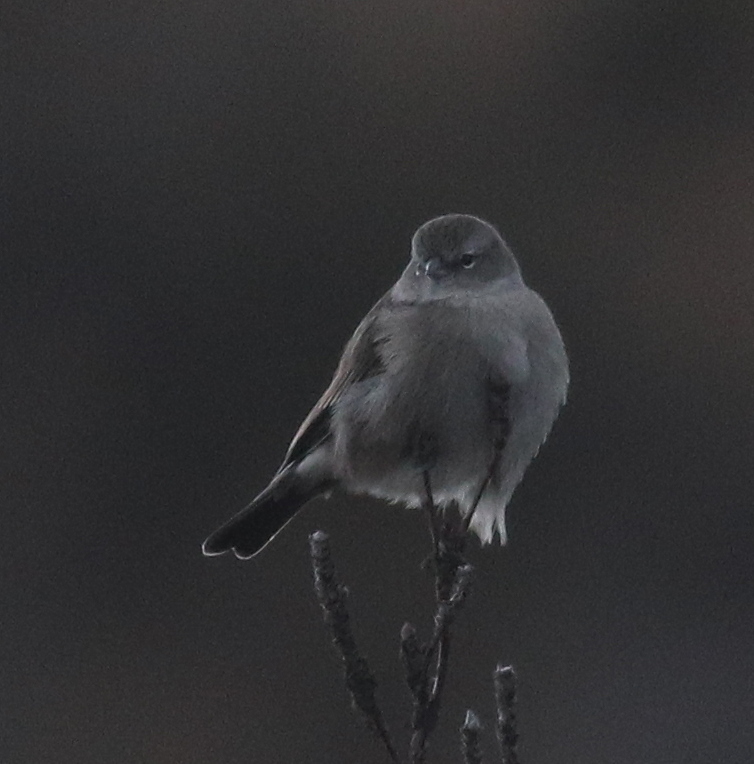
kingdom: Animalia
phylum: Chordata
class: Aves
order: Passeriformes
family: Thraupidae
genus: Geospizopsis
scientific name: Geospizopsis plebejus
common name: Ash-breasted sierra-finch
